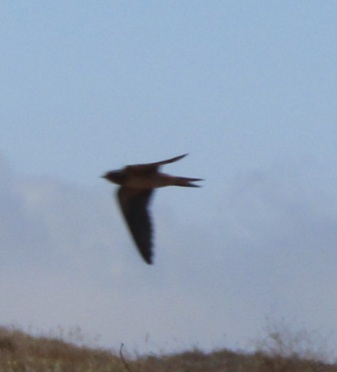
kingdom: Animalia
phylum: Chordata
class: Aves
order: Passeriformes
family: Hirundinidae
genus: Hirundo
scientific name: Hirundo rustica
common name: Barn swallow
